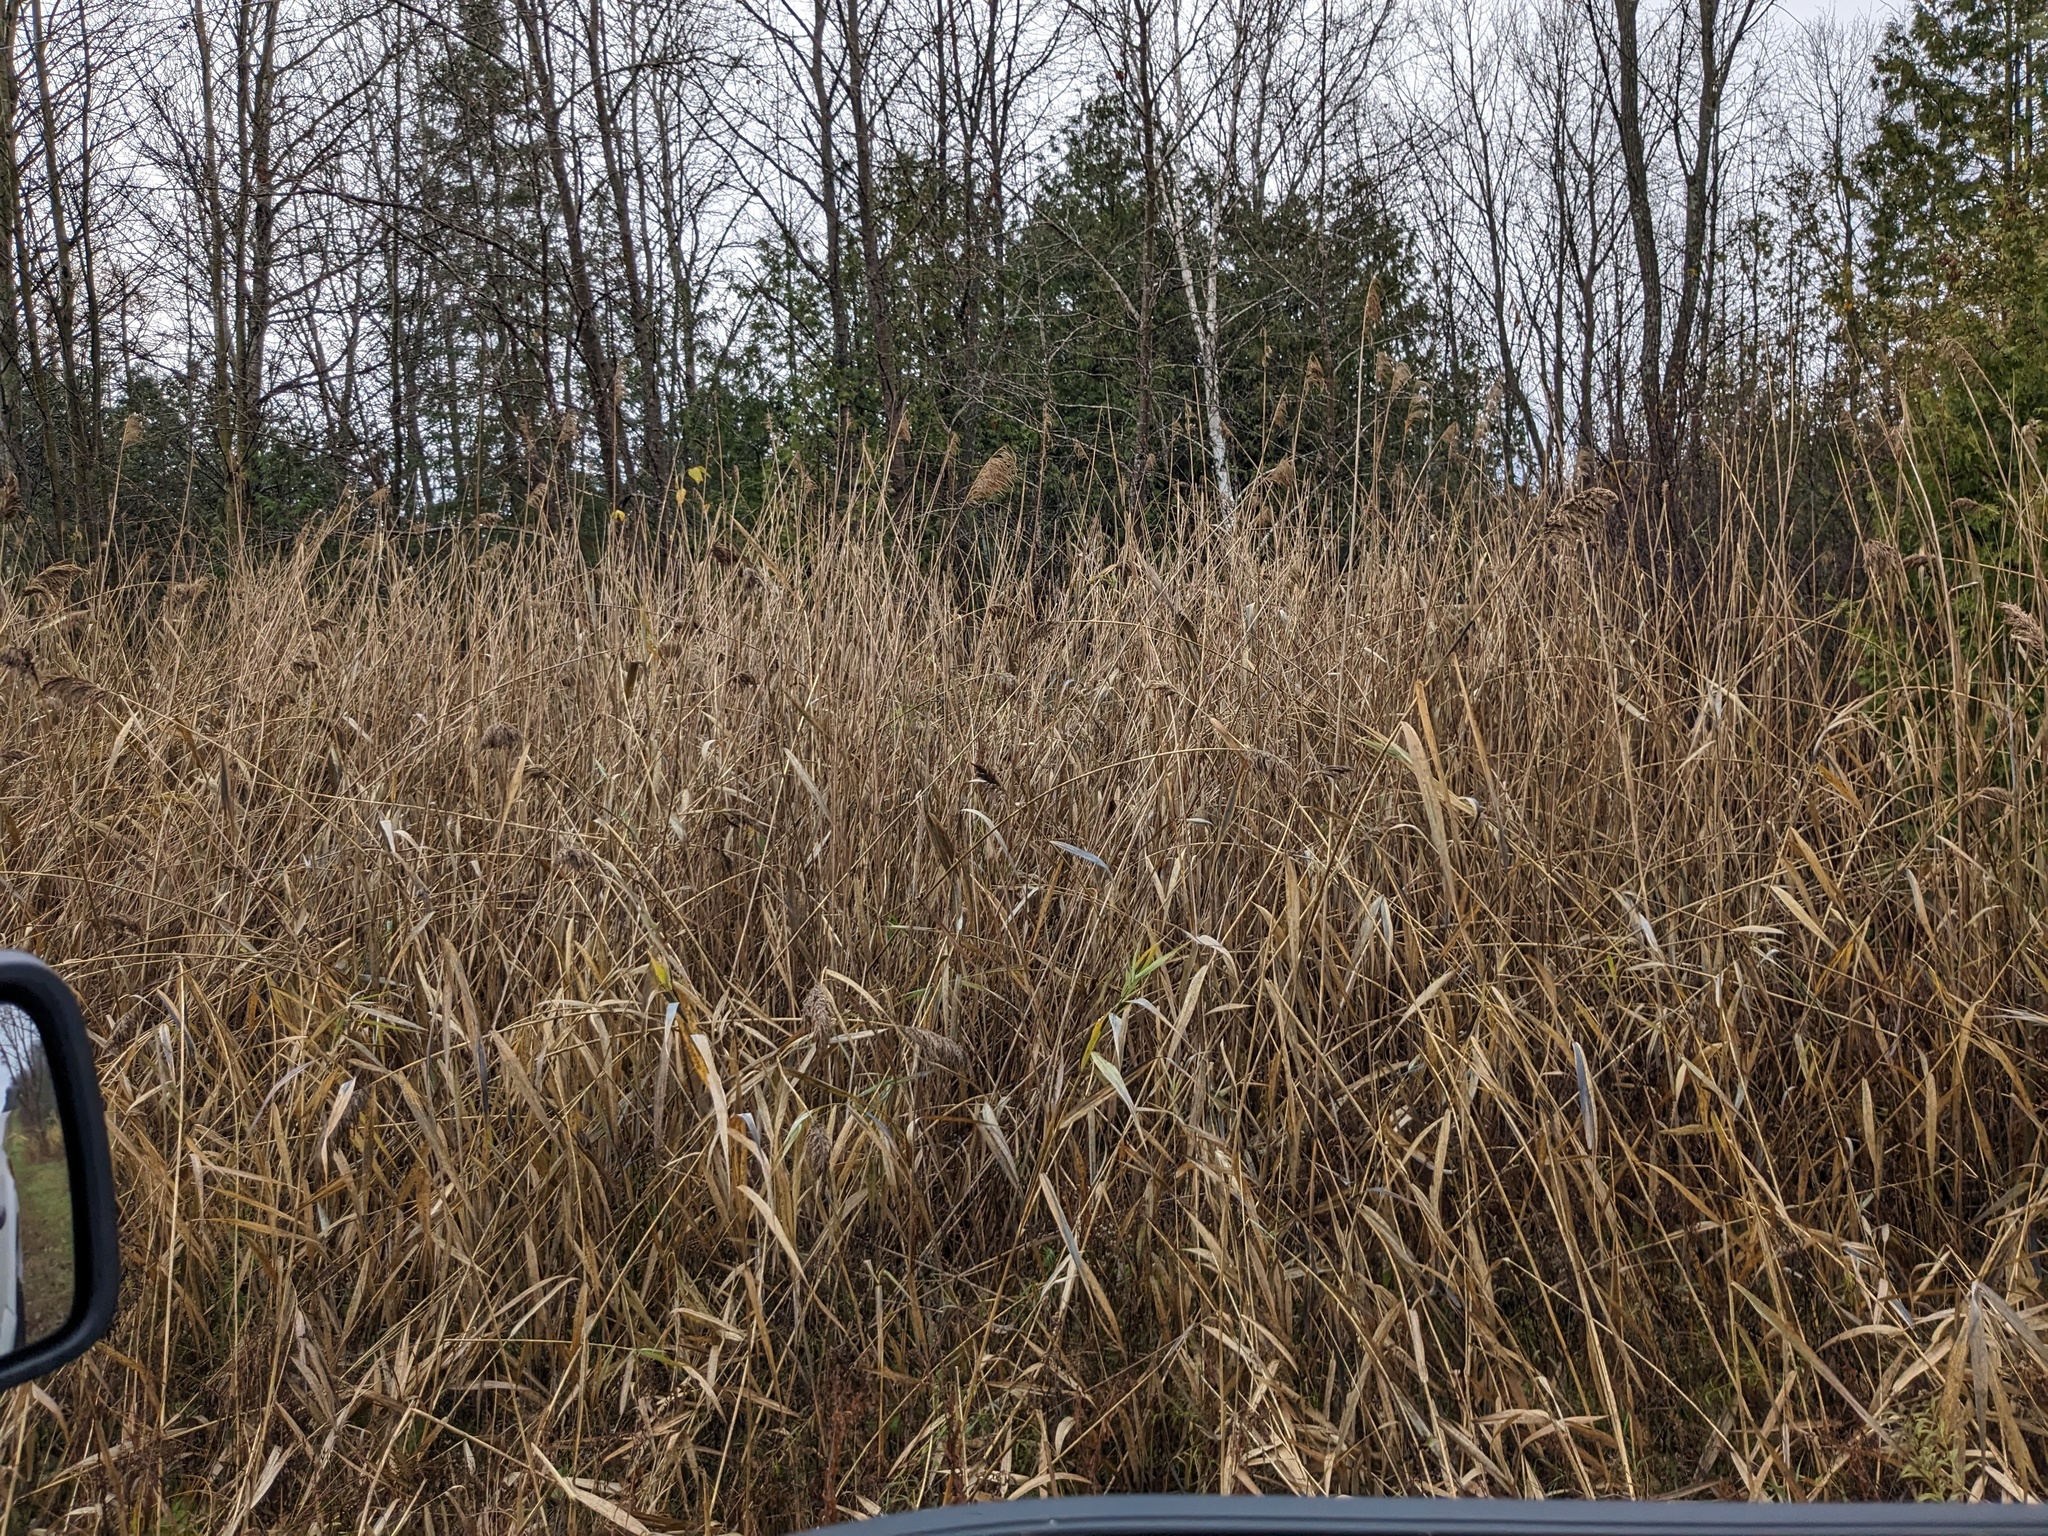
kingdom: Plantae
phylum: Tracheophyta
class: Liliopsida
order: Poales
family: Poaceae
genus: Phragmites
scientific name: Phragmites australis
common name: Common reed
